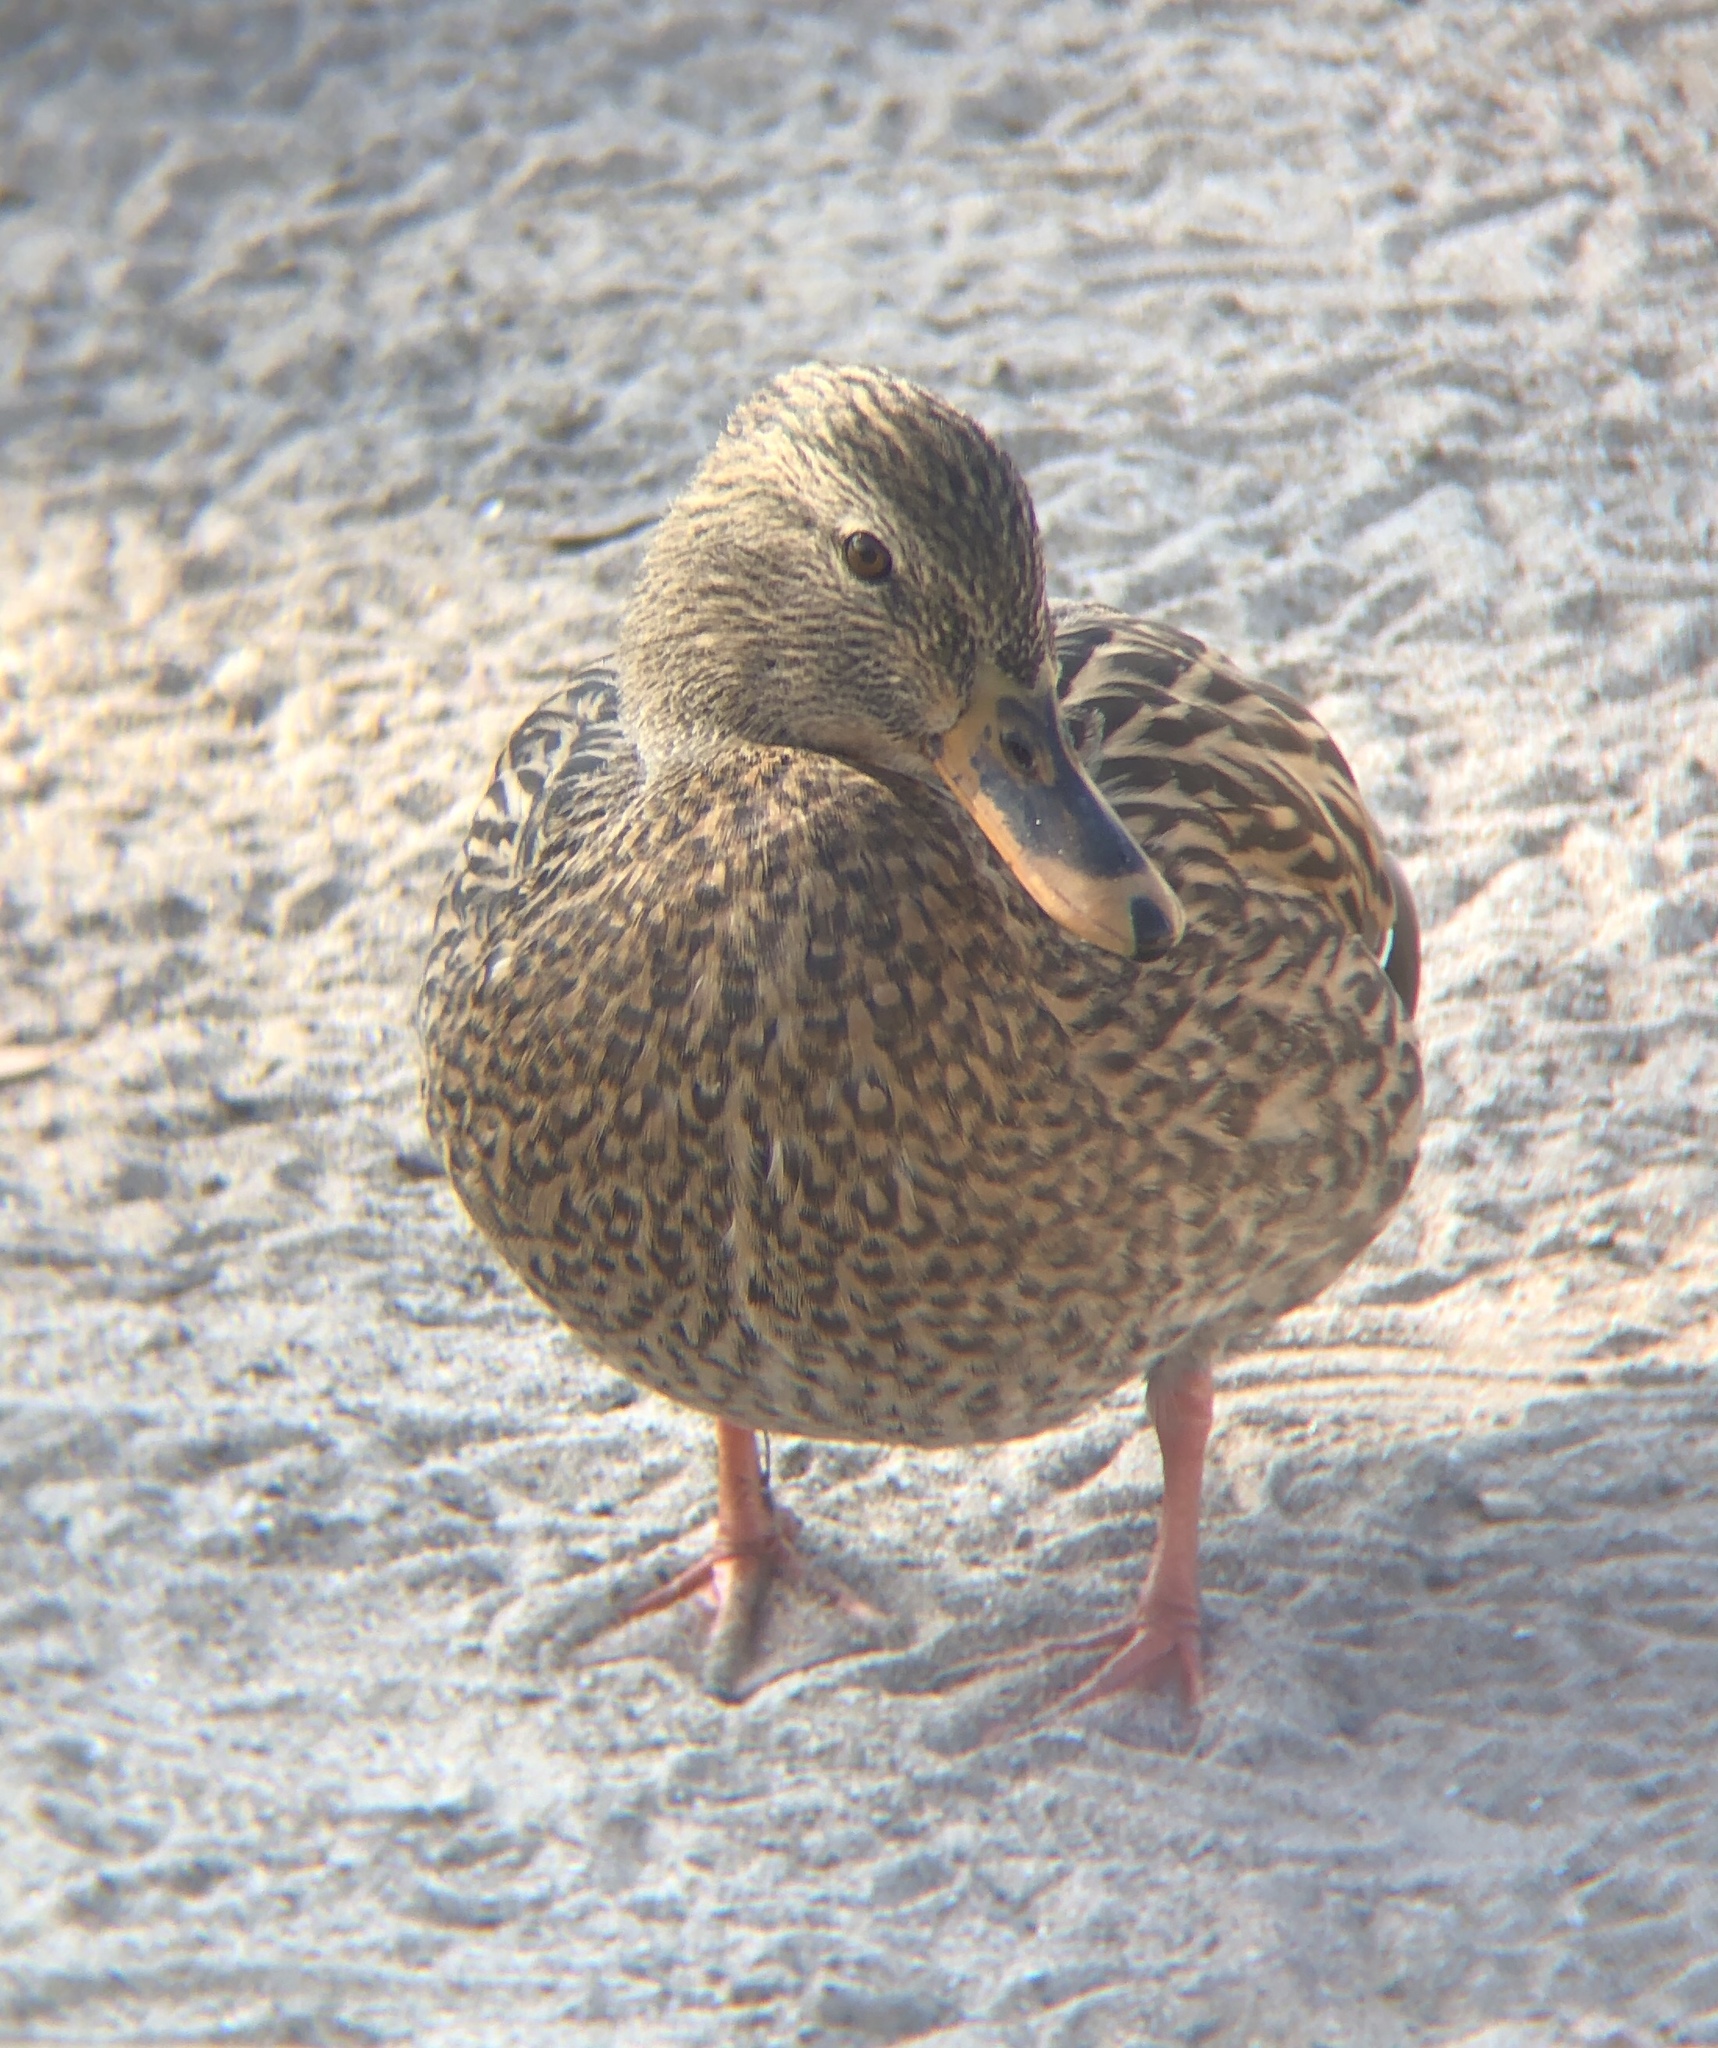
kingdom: Animalia
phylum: Chordata
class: Aves
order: Anseriformes
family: Anatidae
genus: Anas
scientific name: Anas platyrhynchos
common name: Mallard
